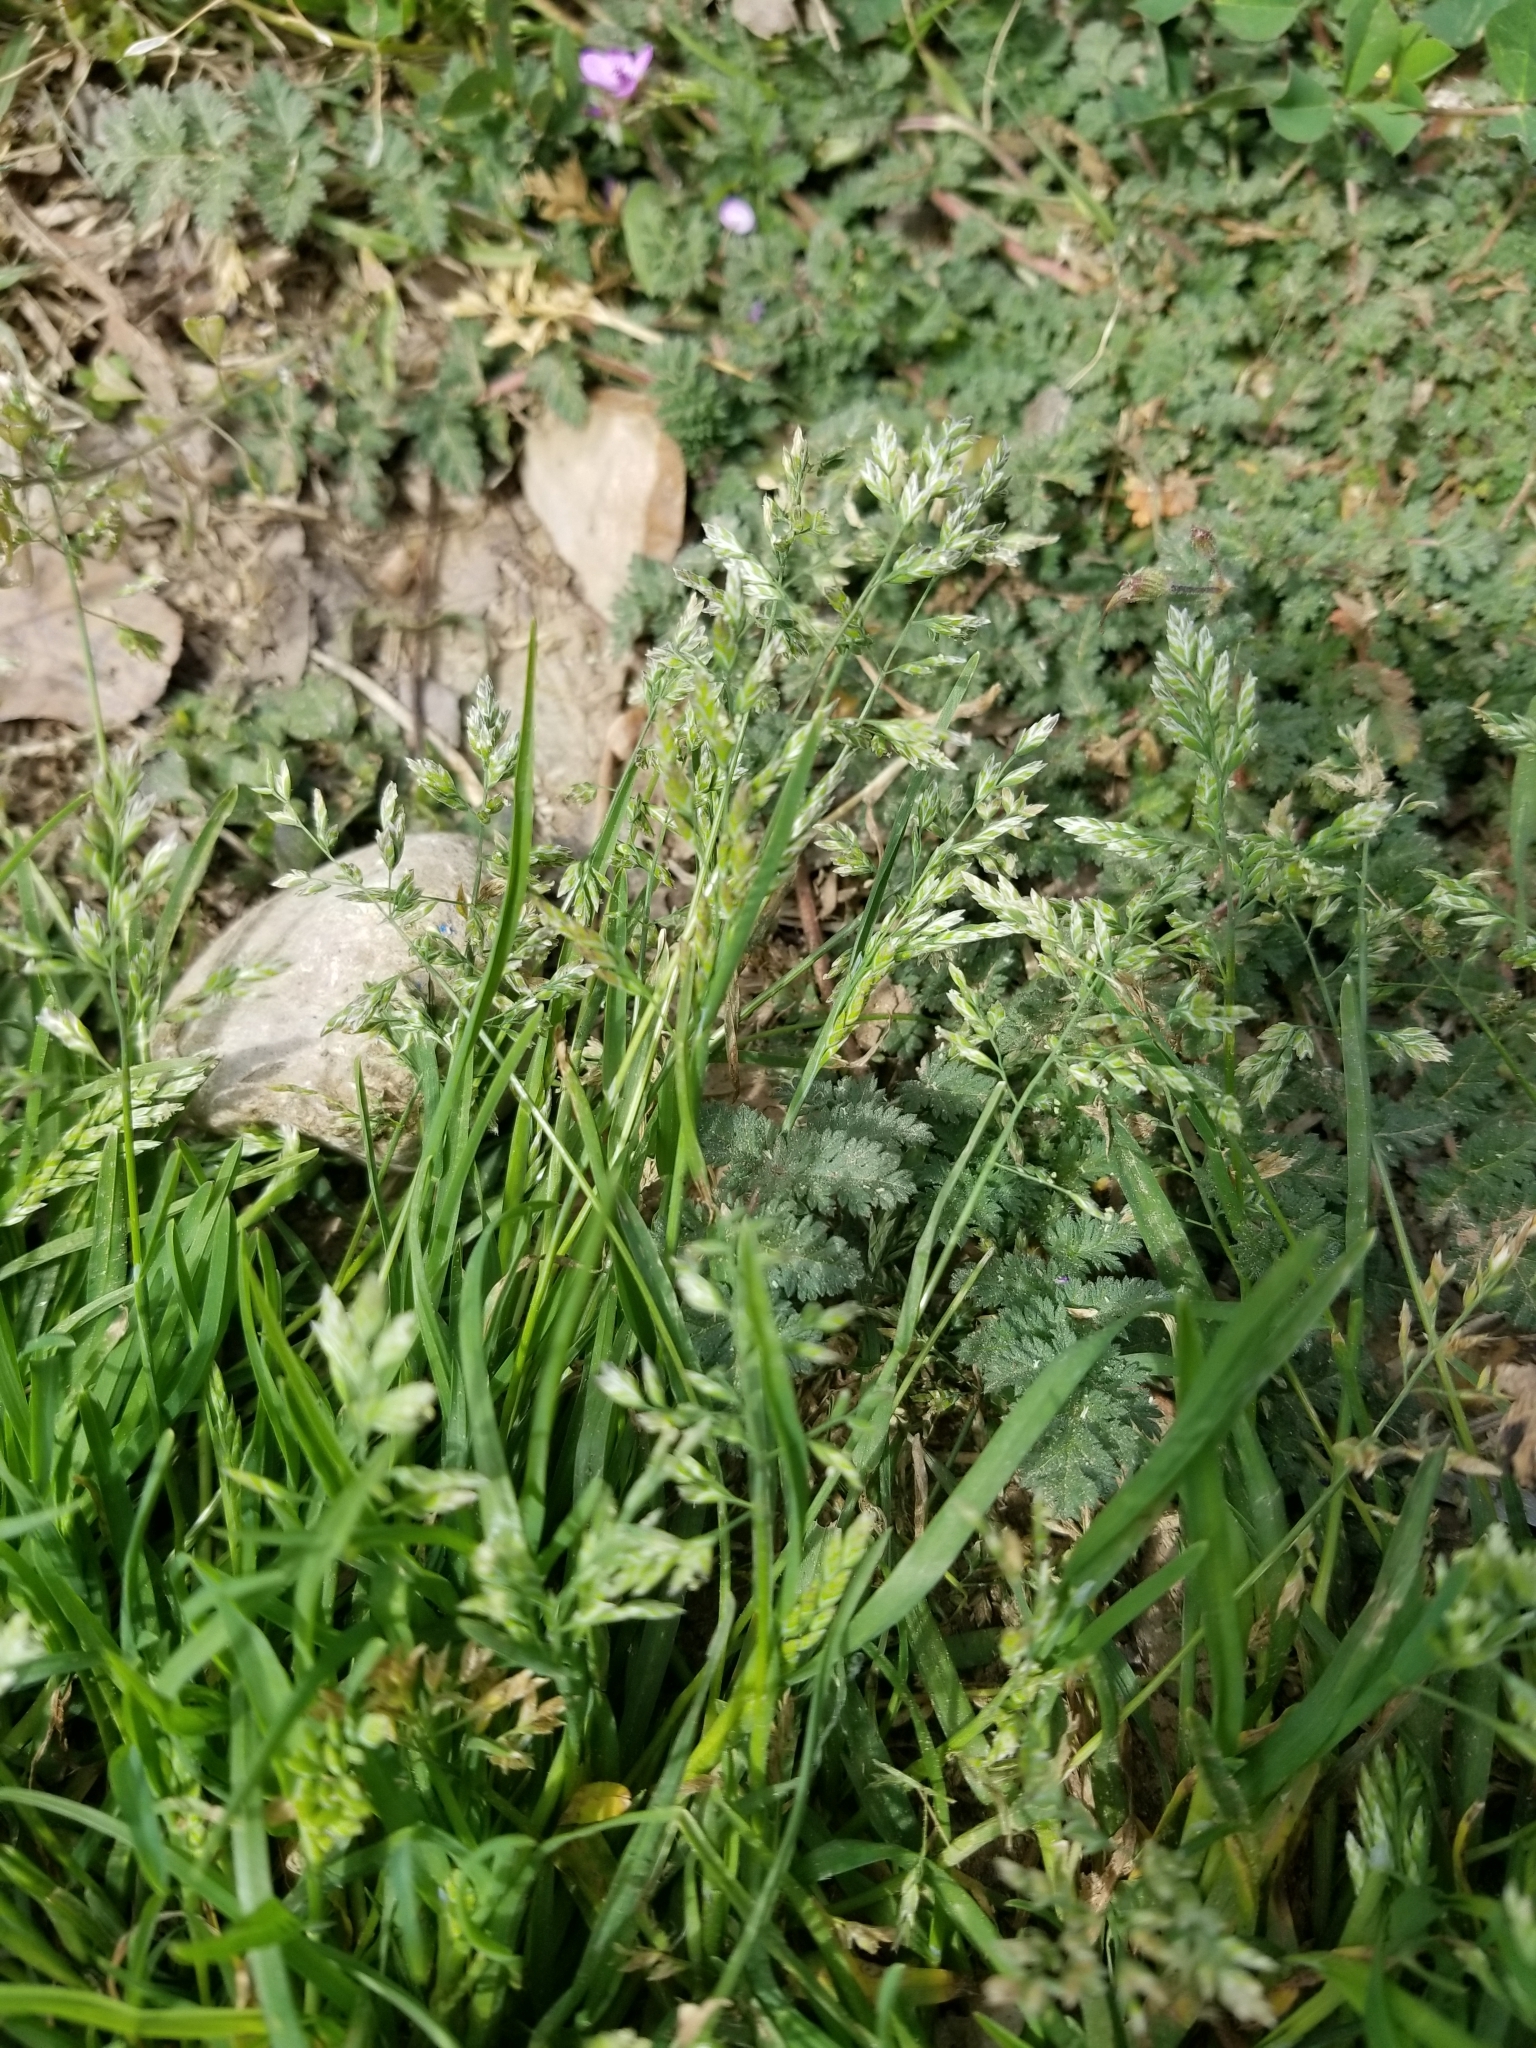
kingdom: Plantae
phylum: Tracheophyta
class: Liliopsida
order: Poales
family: Poaceae
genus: Poa
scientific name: Poa annua
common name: Annual bluegrass
